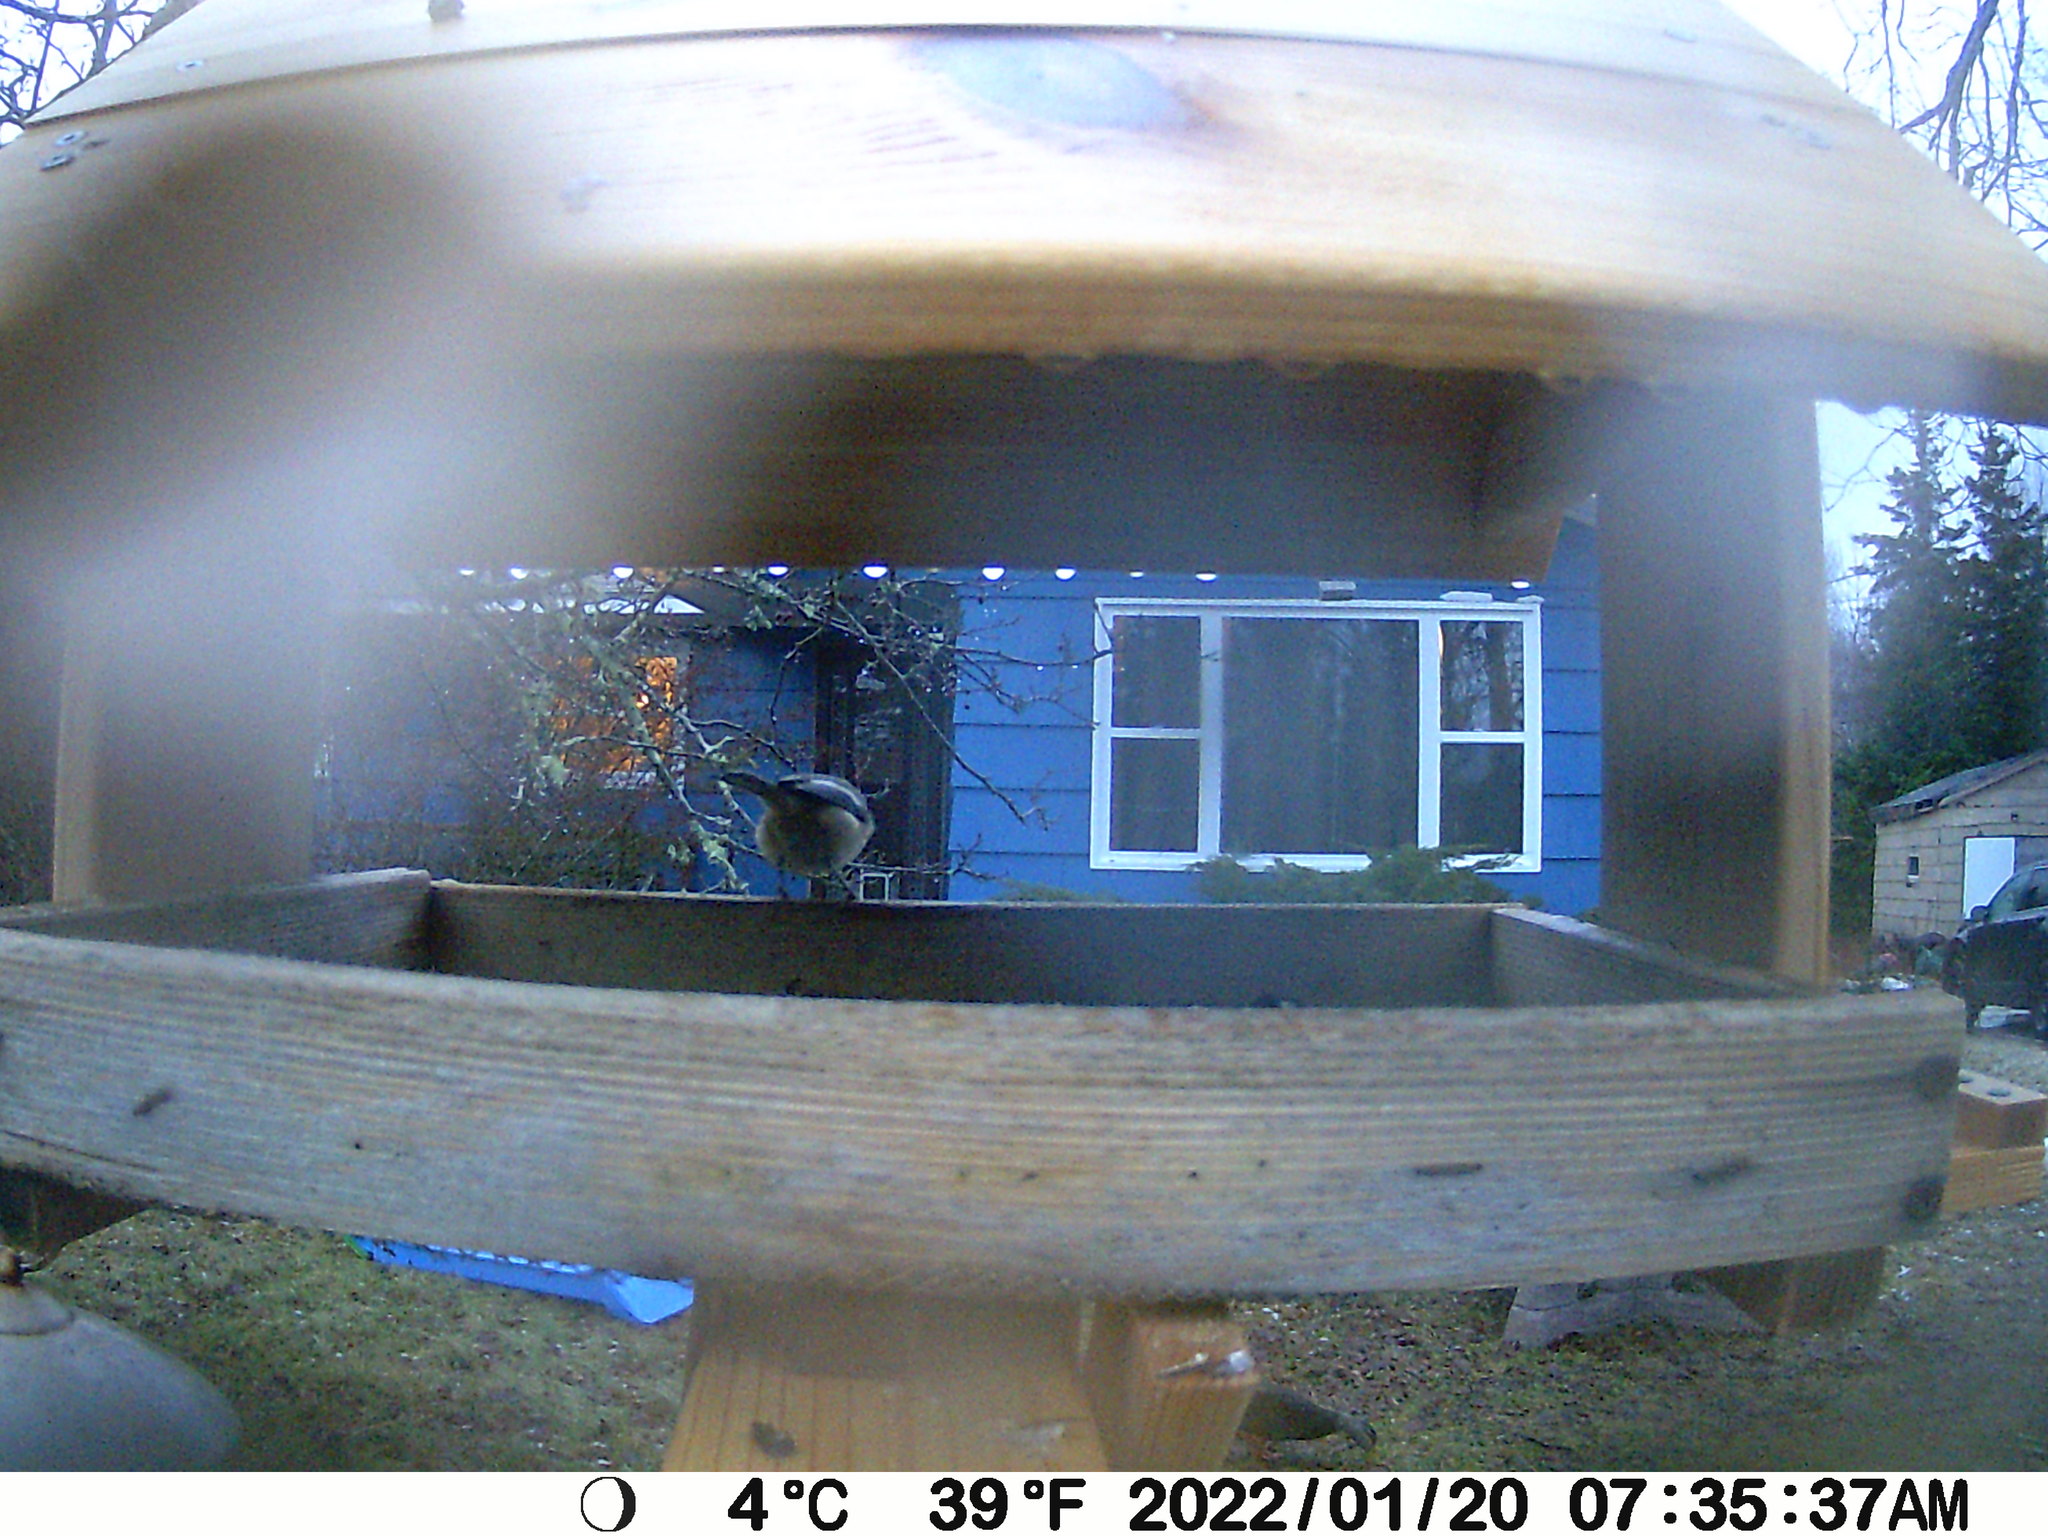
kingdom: Animalia
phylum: Chordata
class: Aves
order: Anseriformes
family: Anatidae
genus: Anas
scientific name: Anas rubripes
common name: American black duck
